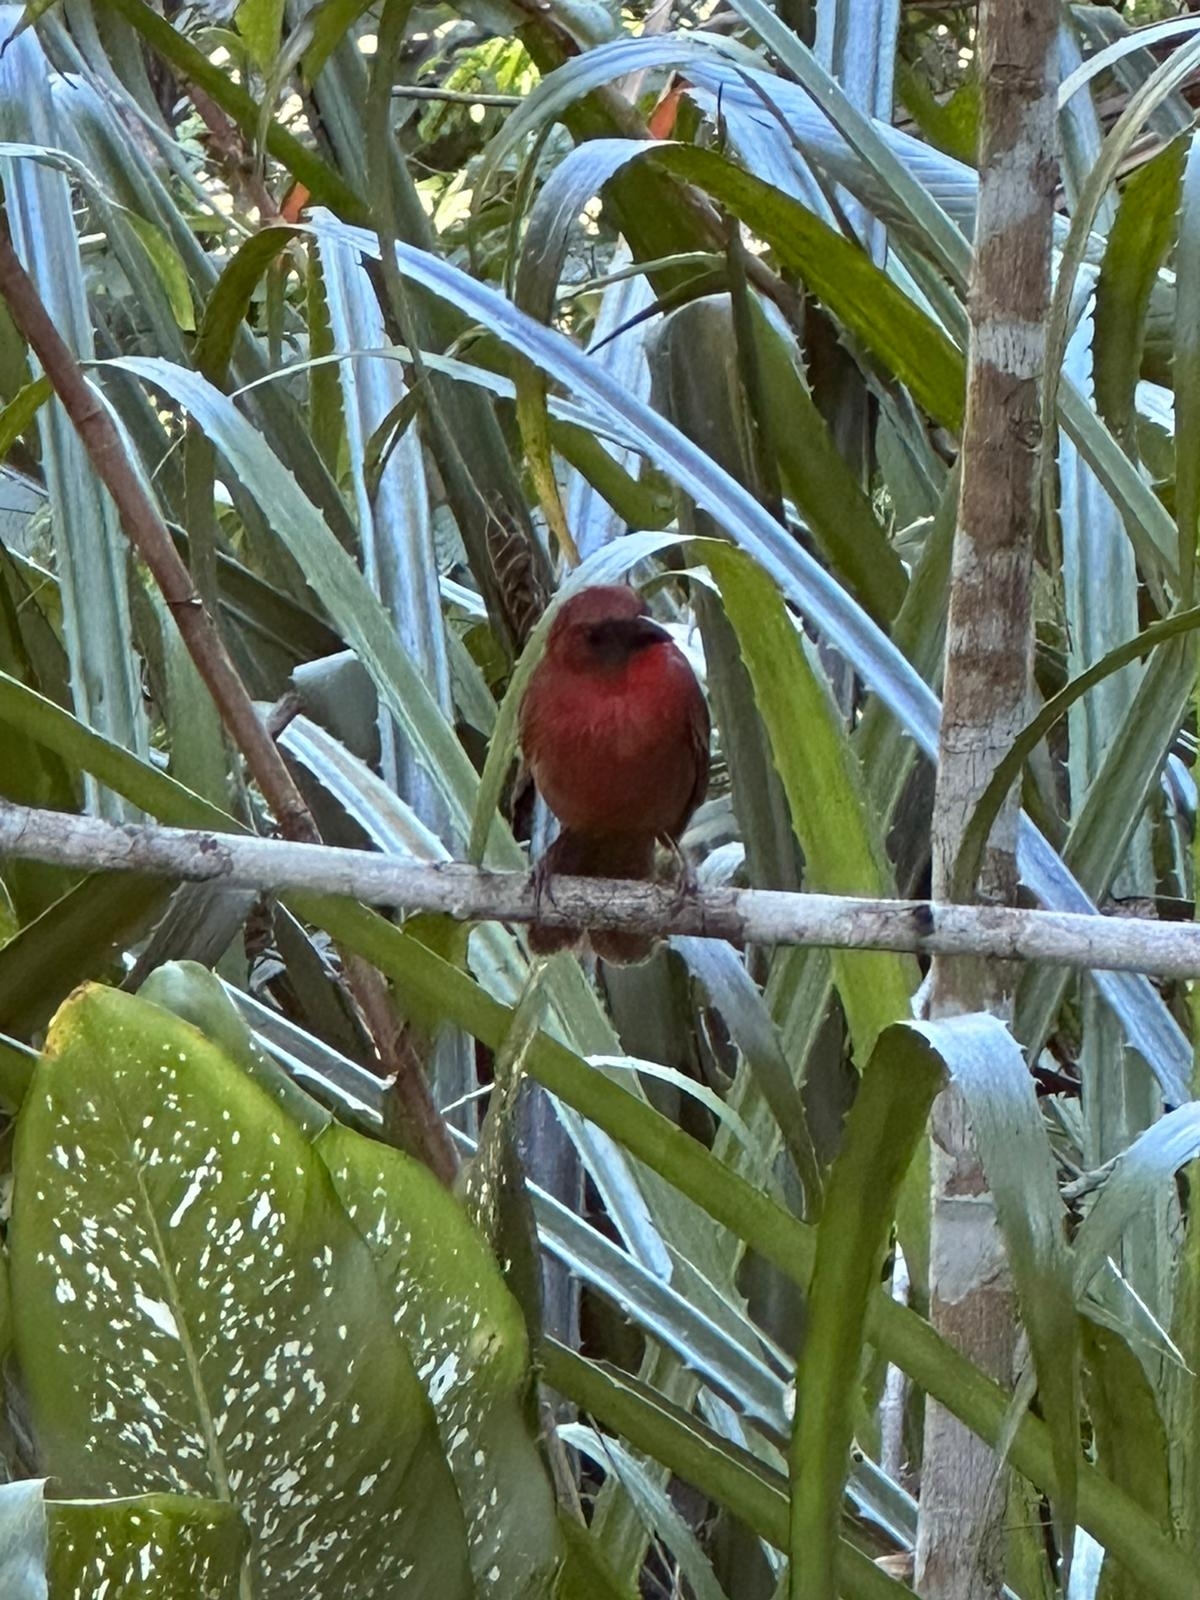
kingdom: Animalia
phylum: Chordata
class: Aves
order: Passeriformes
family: Cardinalidae
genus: Habia
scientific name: Habia fuscicauda
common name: Red-throated ant-tanager
